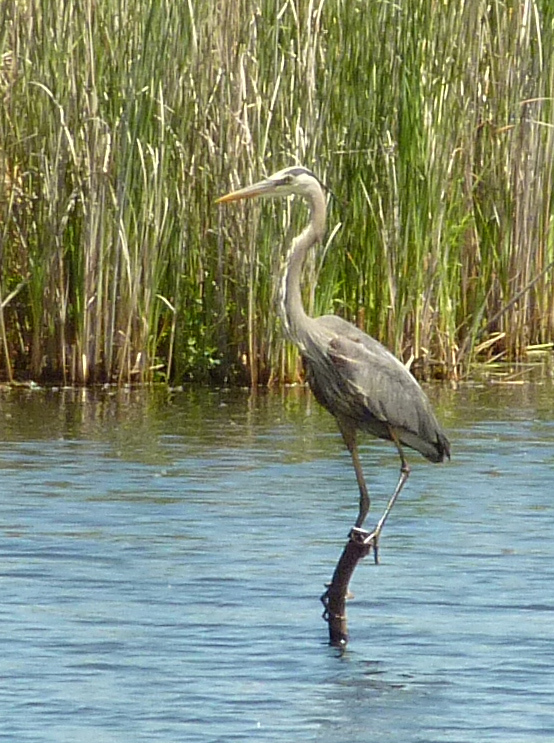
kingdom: Animalia
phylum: Chordata
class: Aves
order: Pelecaniformes
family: Ardeidae
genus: Ardea
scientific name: Ardea herodias
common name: Great blue heron
